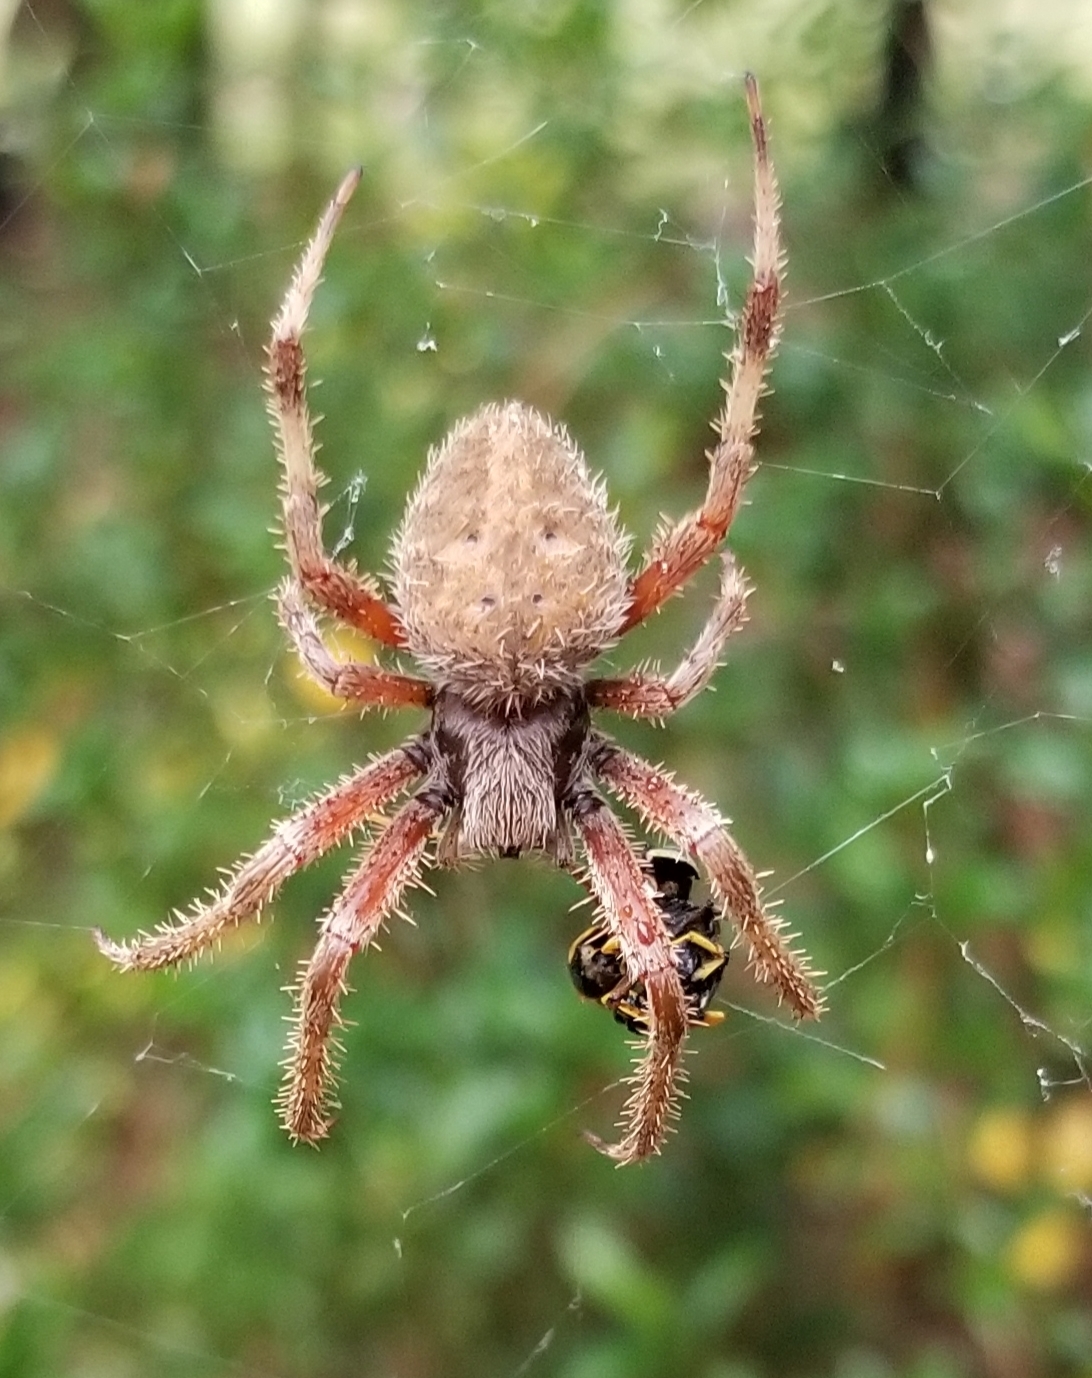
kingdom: Animalia
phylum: Arthropoda
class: Arachnida
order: Araneae
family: Araneidae
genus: Neoscona
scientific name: Neoscona crucifera
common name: Spotted orbweaver
